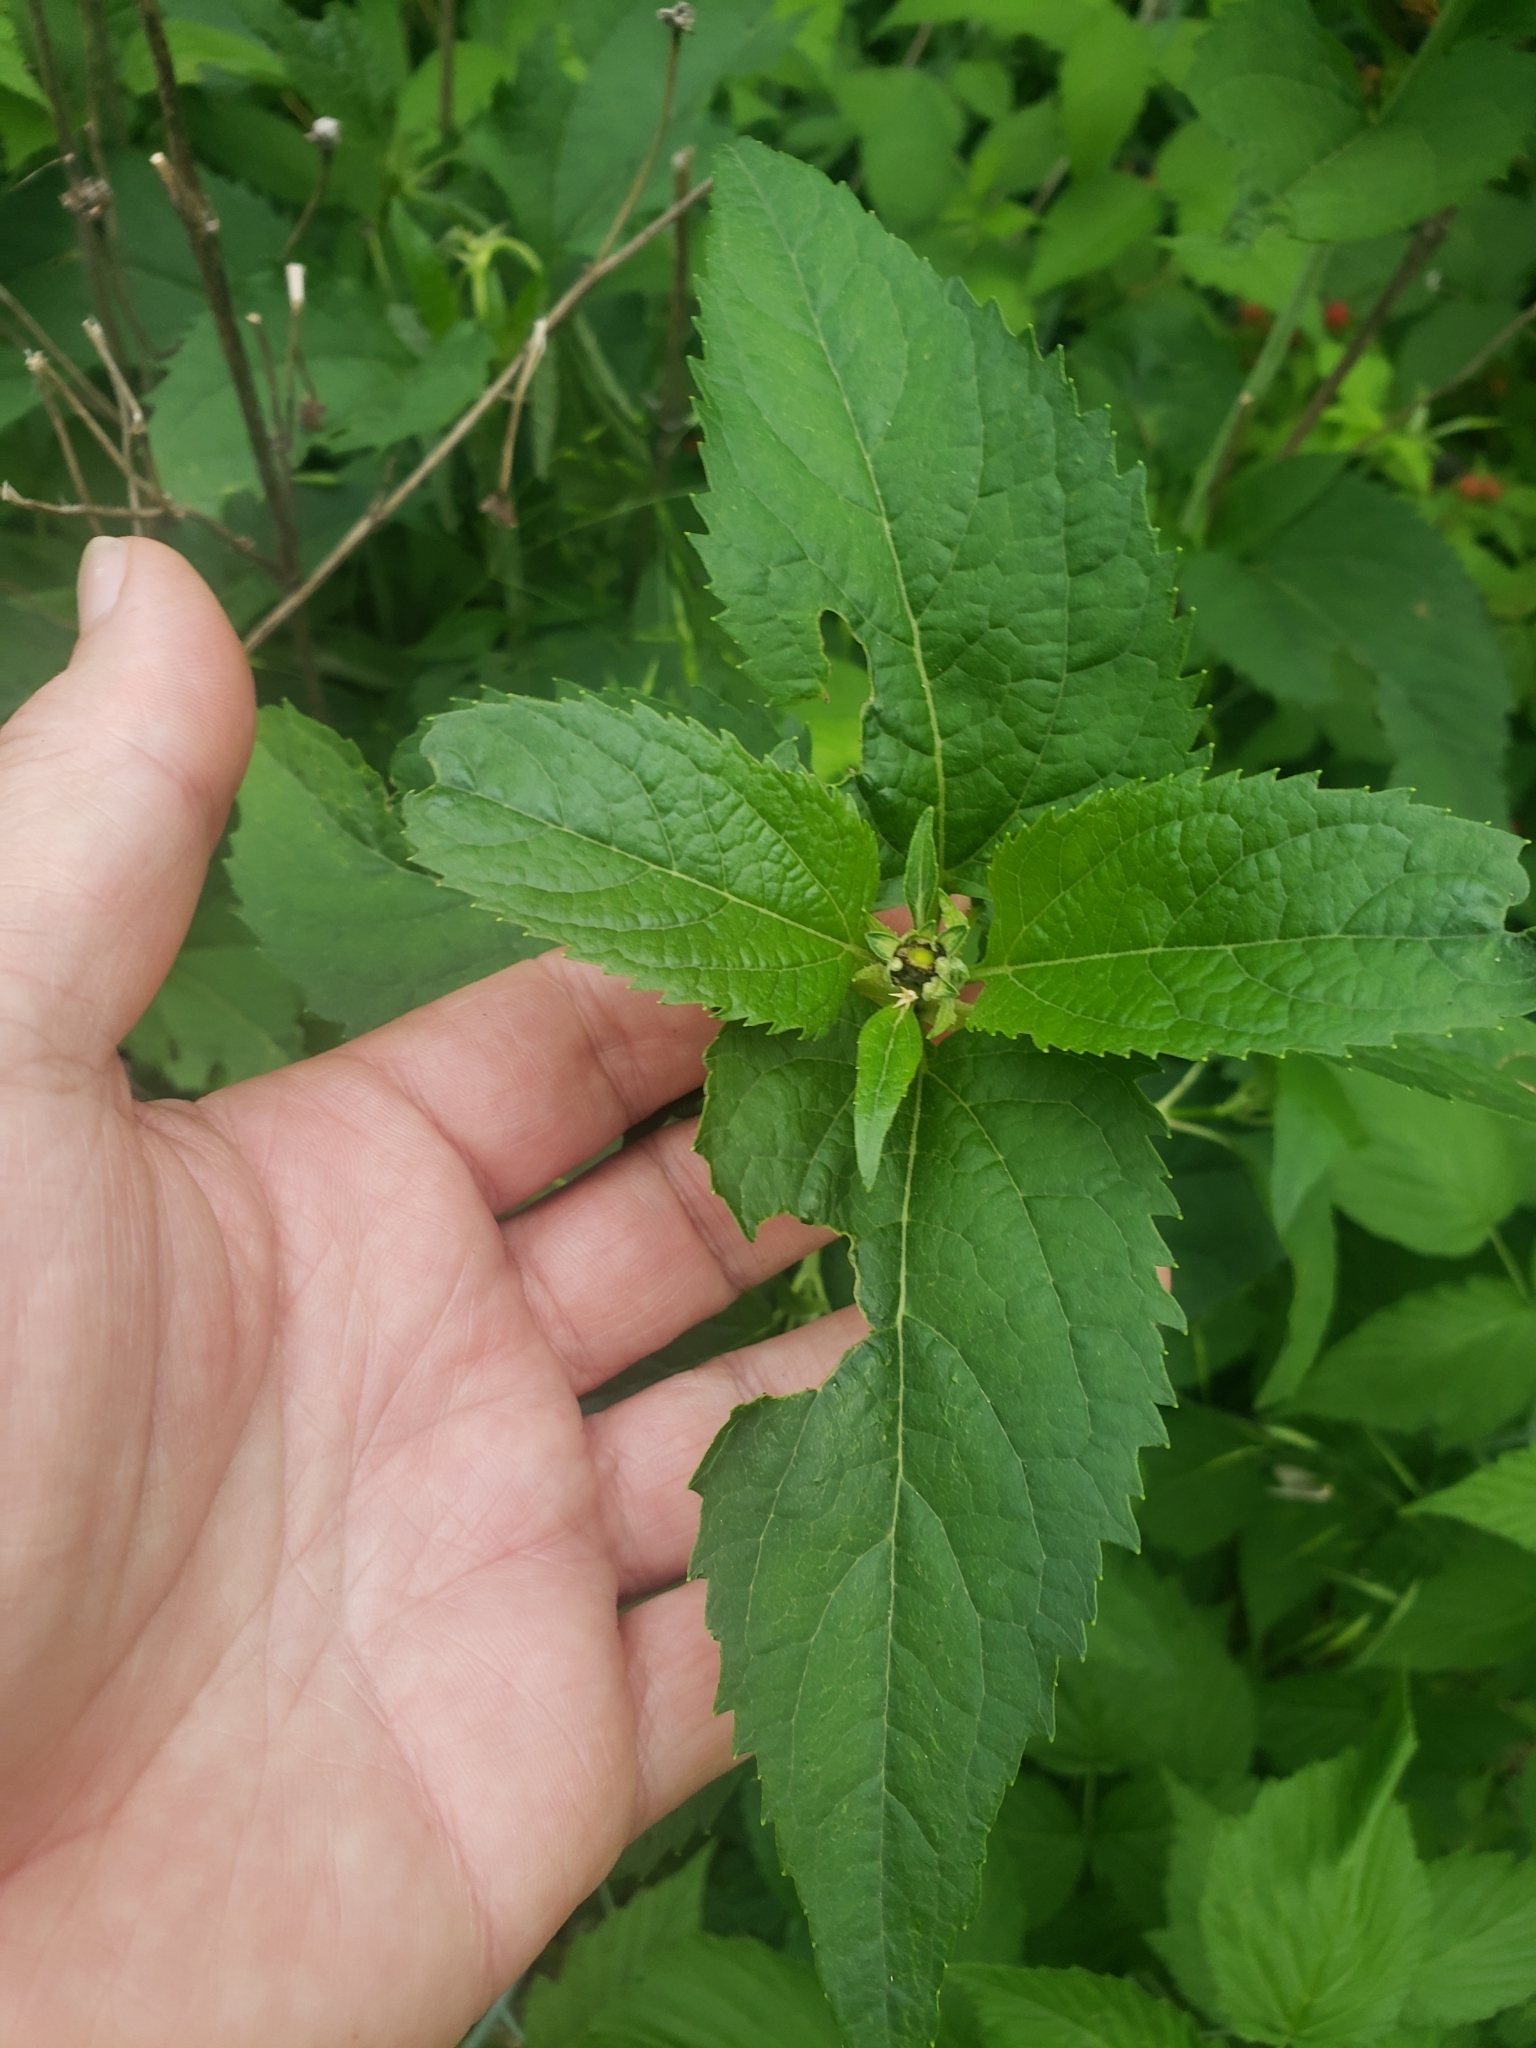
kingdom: Animalia
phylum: Arthropoda
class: Insecta
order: Hemiptera
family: Lygaeidae
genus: Lygaeus
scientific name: Lygaeus turcicus
